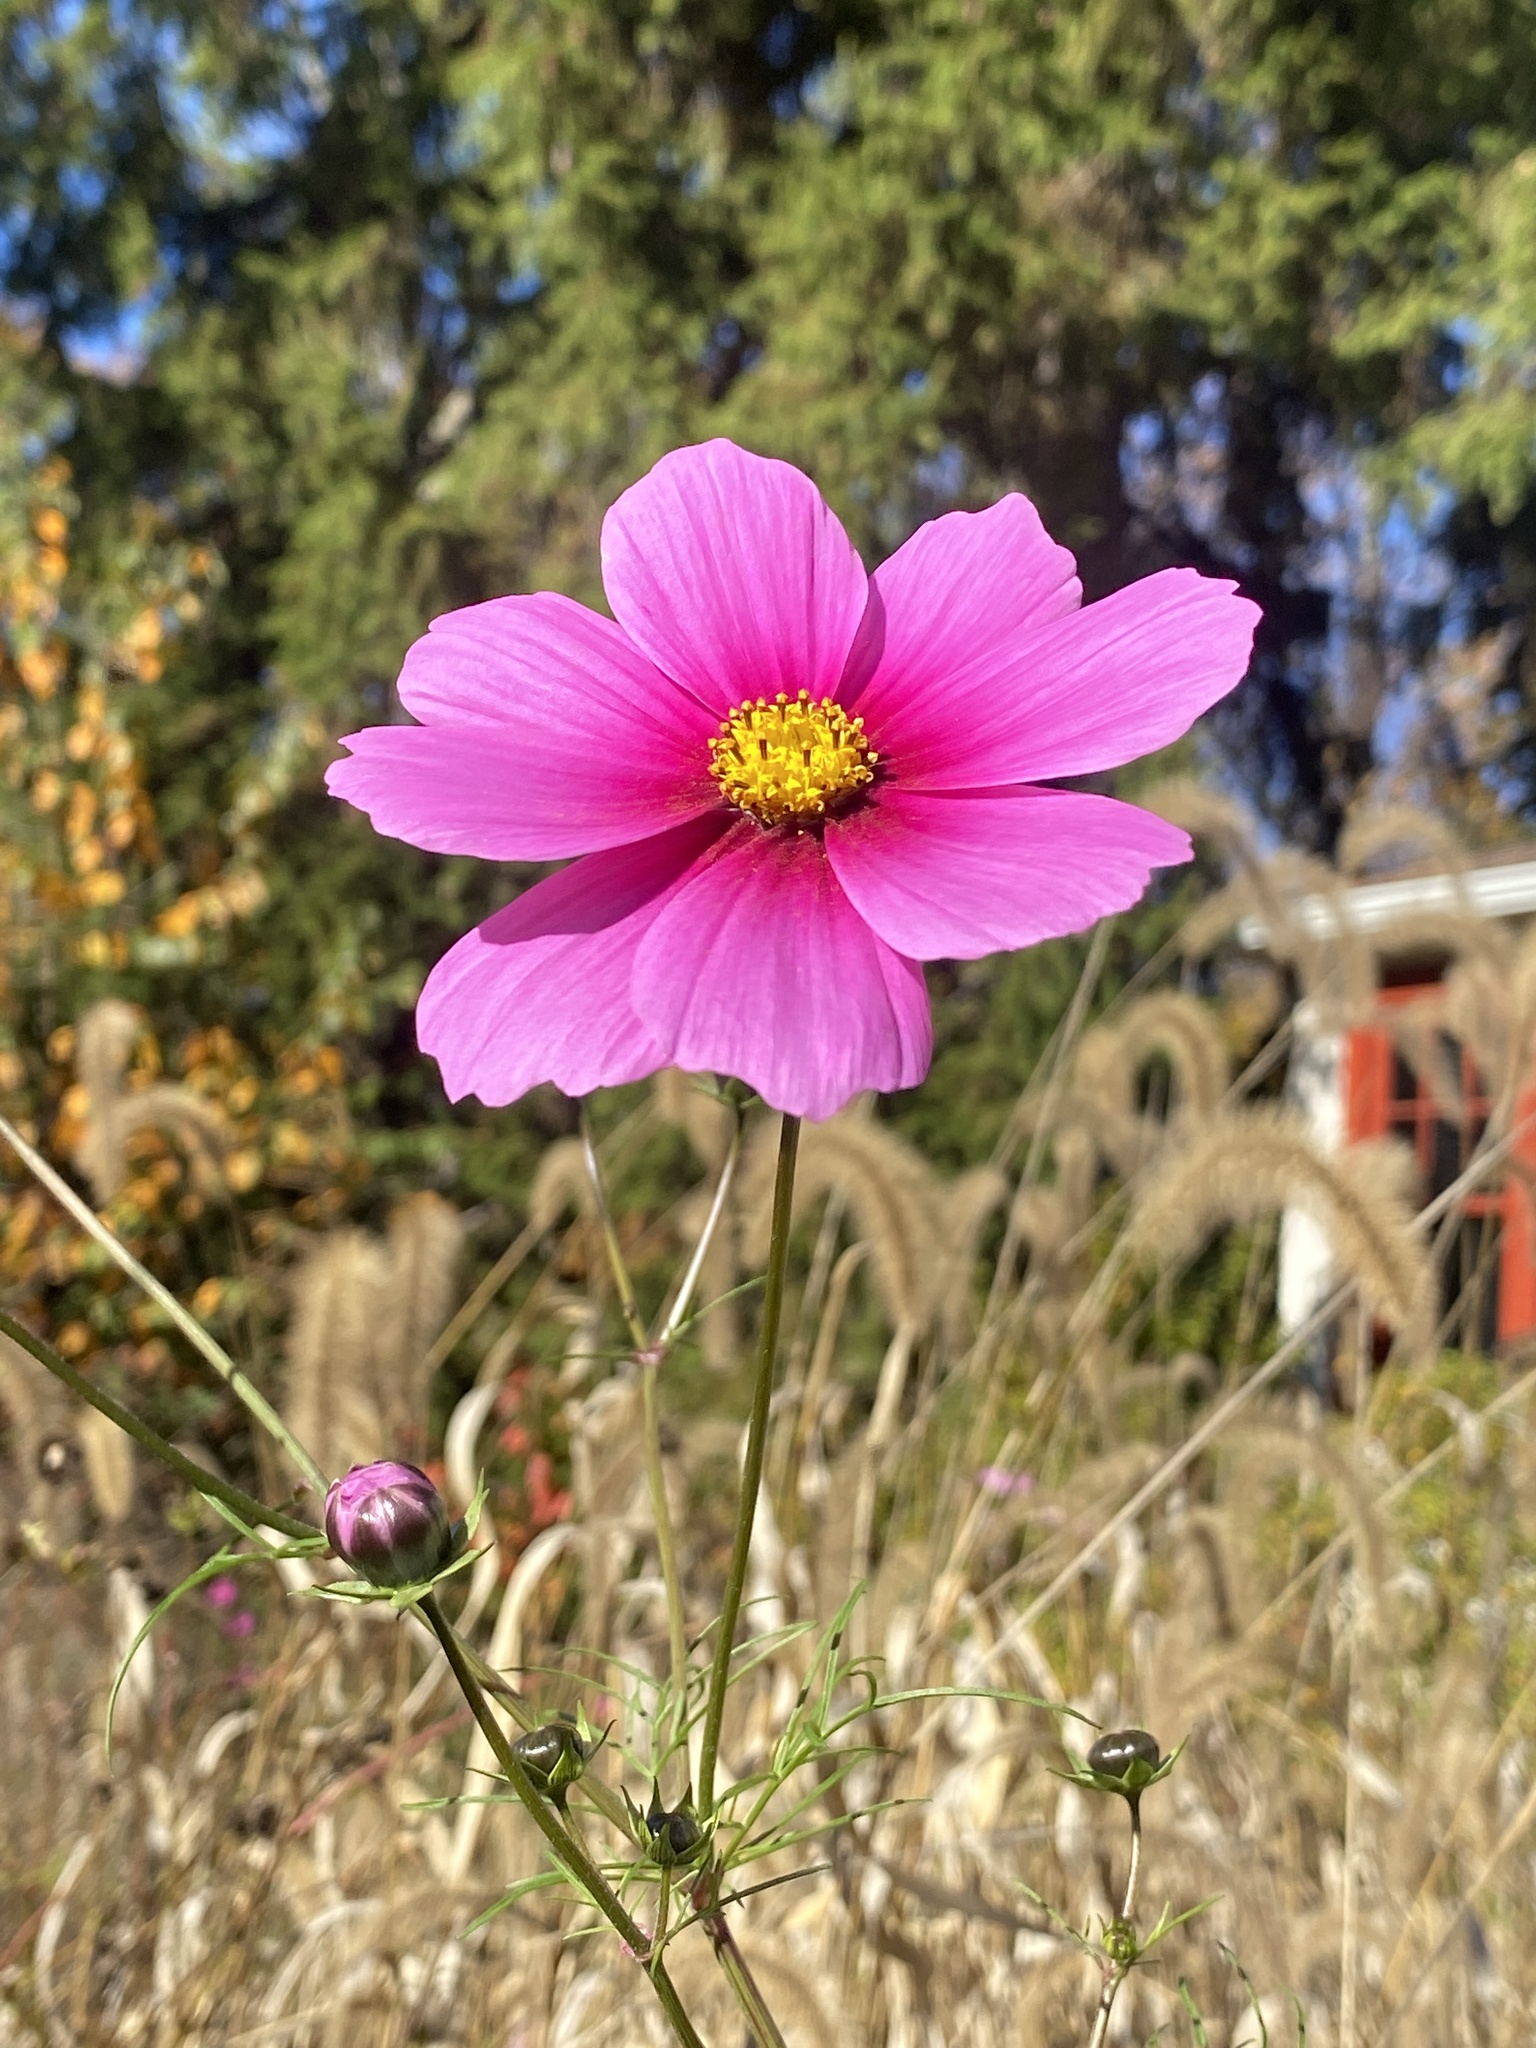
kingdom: Plantae
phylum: Tracheophyta
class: Magnoliopsida
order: Asterales
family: Asteraceae
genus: Cosmos
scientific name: Cosmos bipinnatus
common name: Garden cosmos
